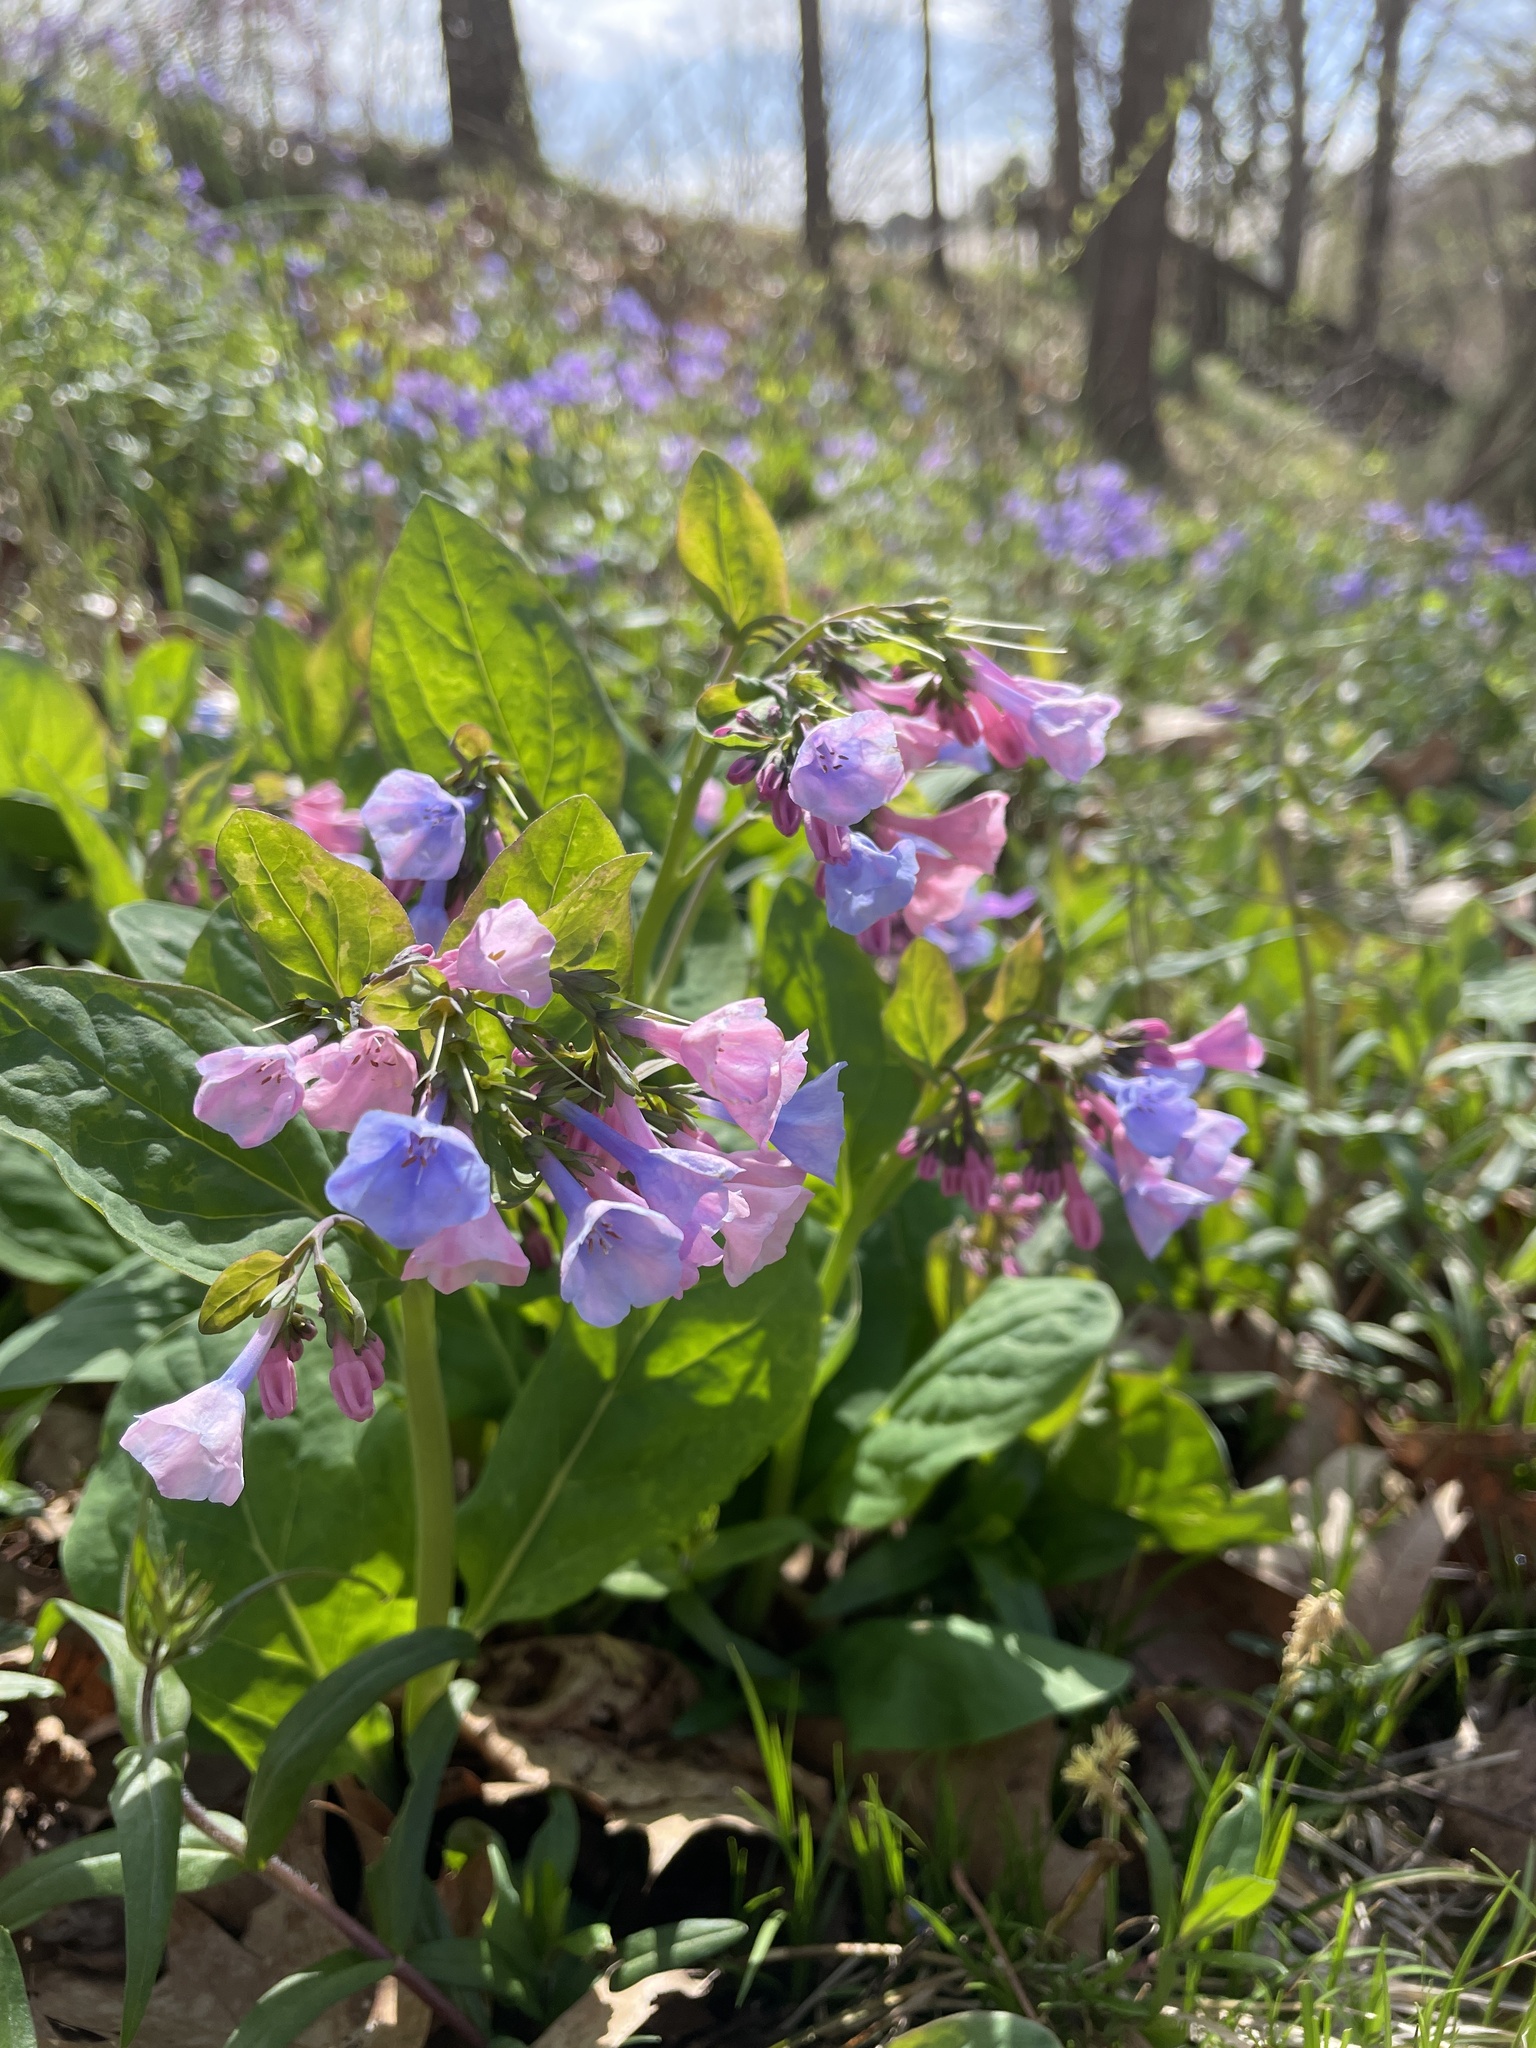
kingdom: Plantae
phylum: Tracheophyta
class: Magnoliopsida
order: Boraginales
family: Boraginaceae
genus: Mertensia
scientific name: Mertensia virginica
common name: Virginia bluebells
